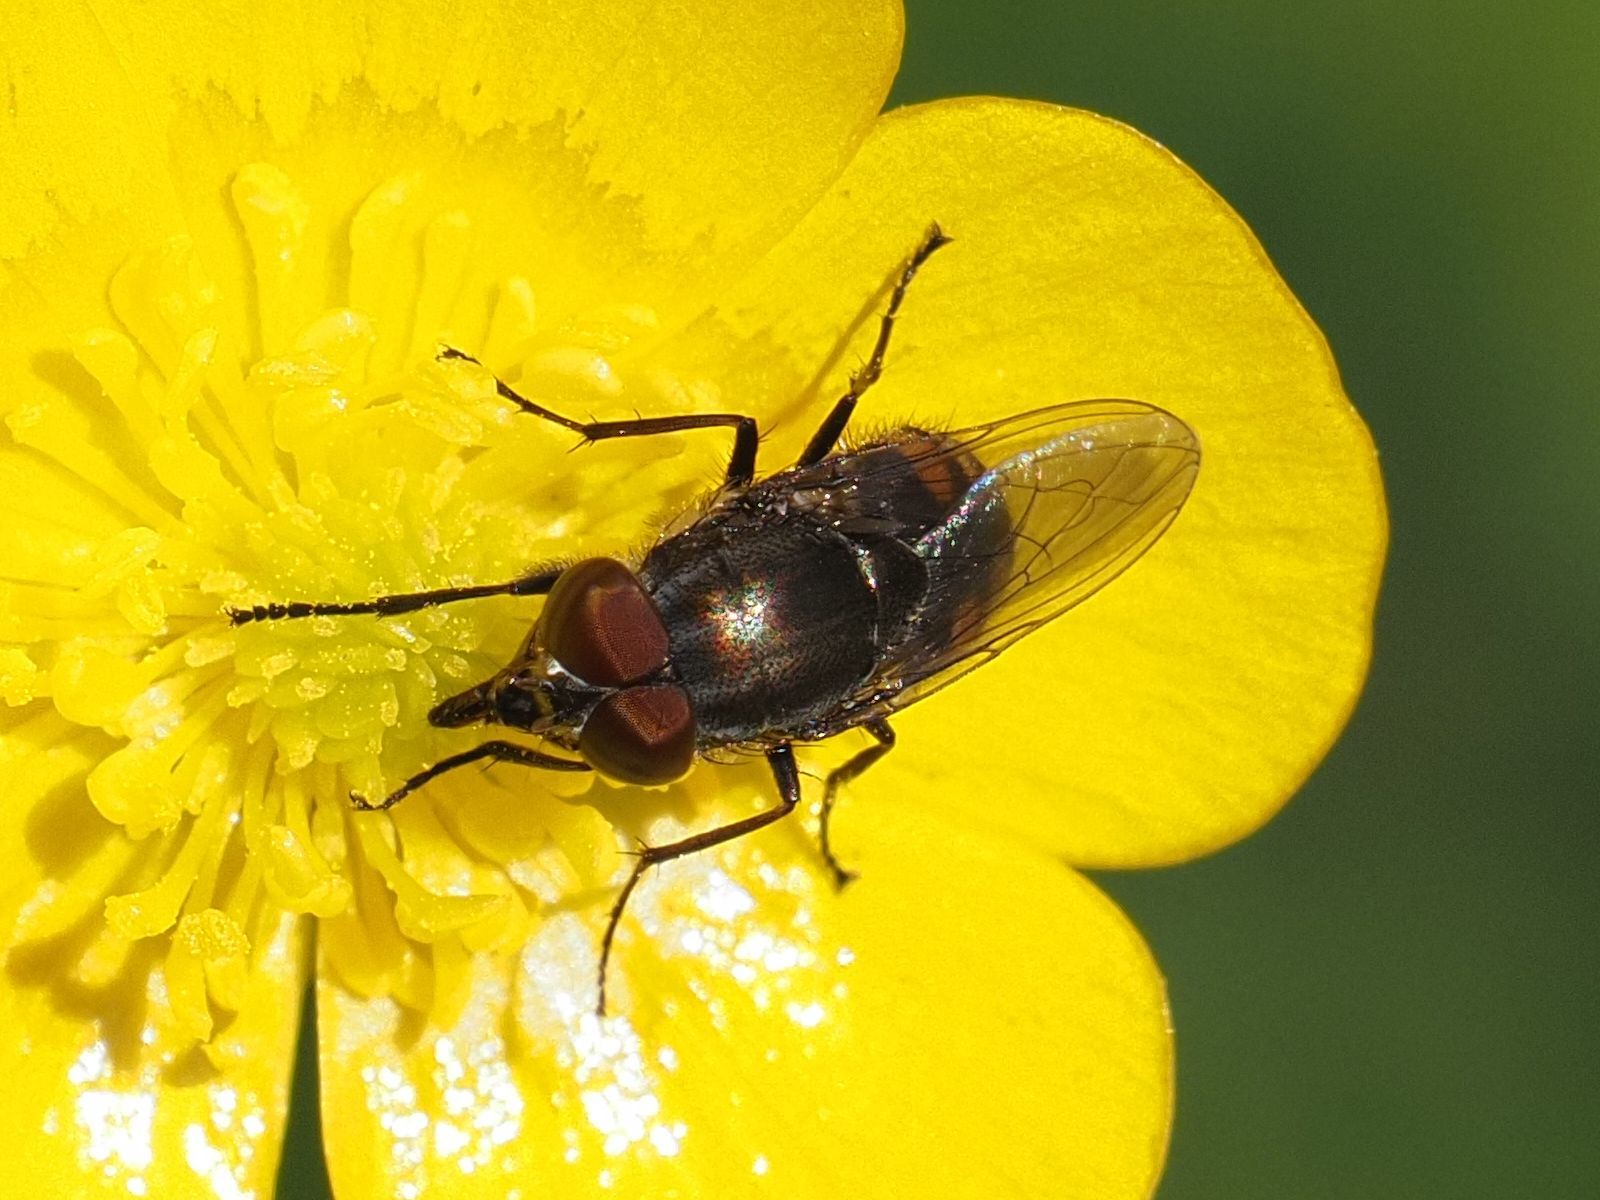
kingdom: Animalia
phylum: Arthropoda
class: Insecta
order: Diptera
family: Calliphoridae
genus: Stomorhina
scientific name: Stomorhina lunata
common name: Locust blowfly
